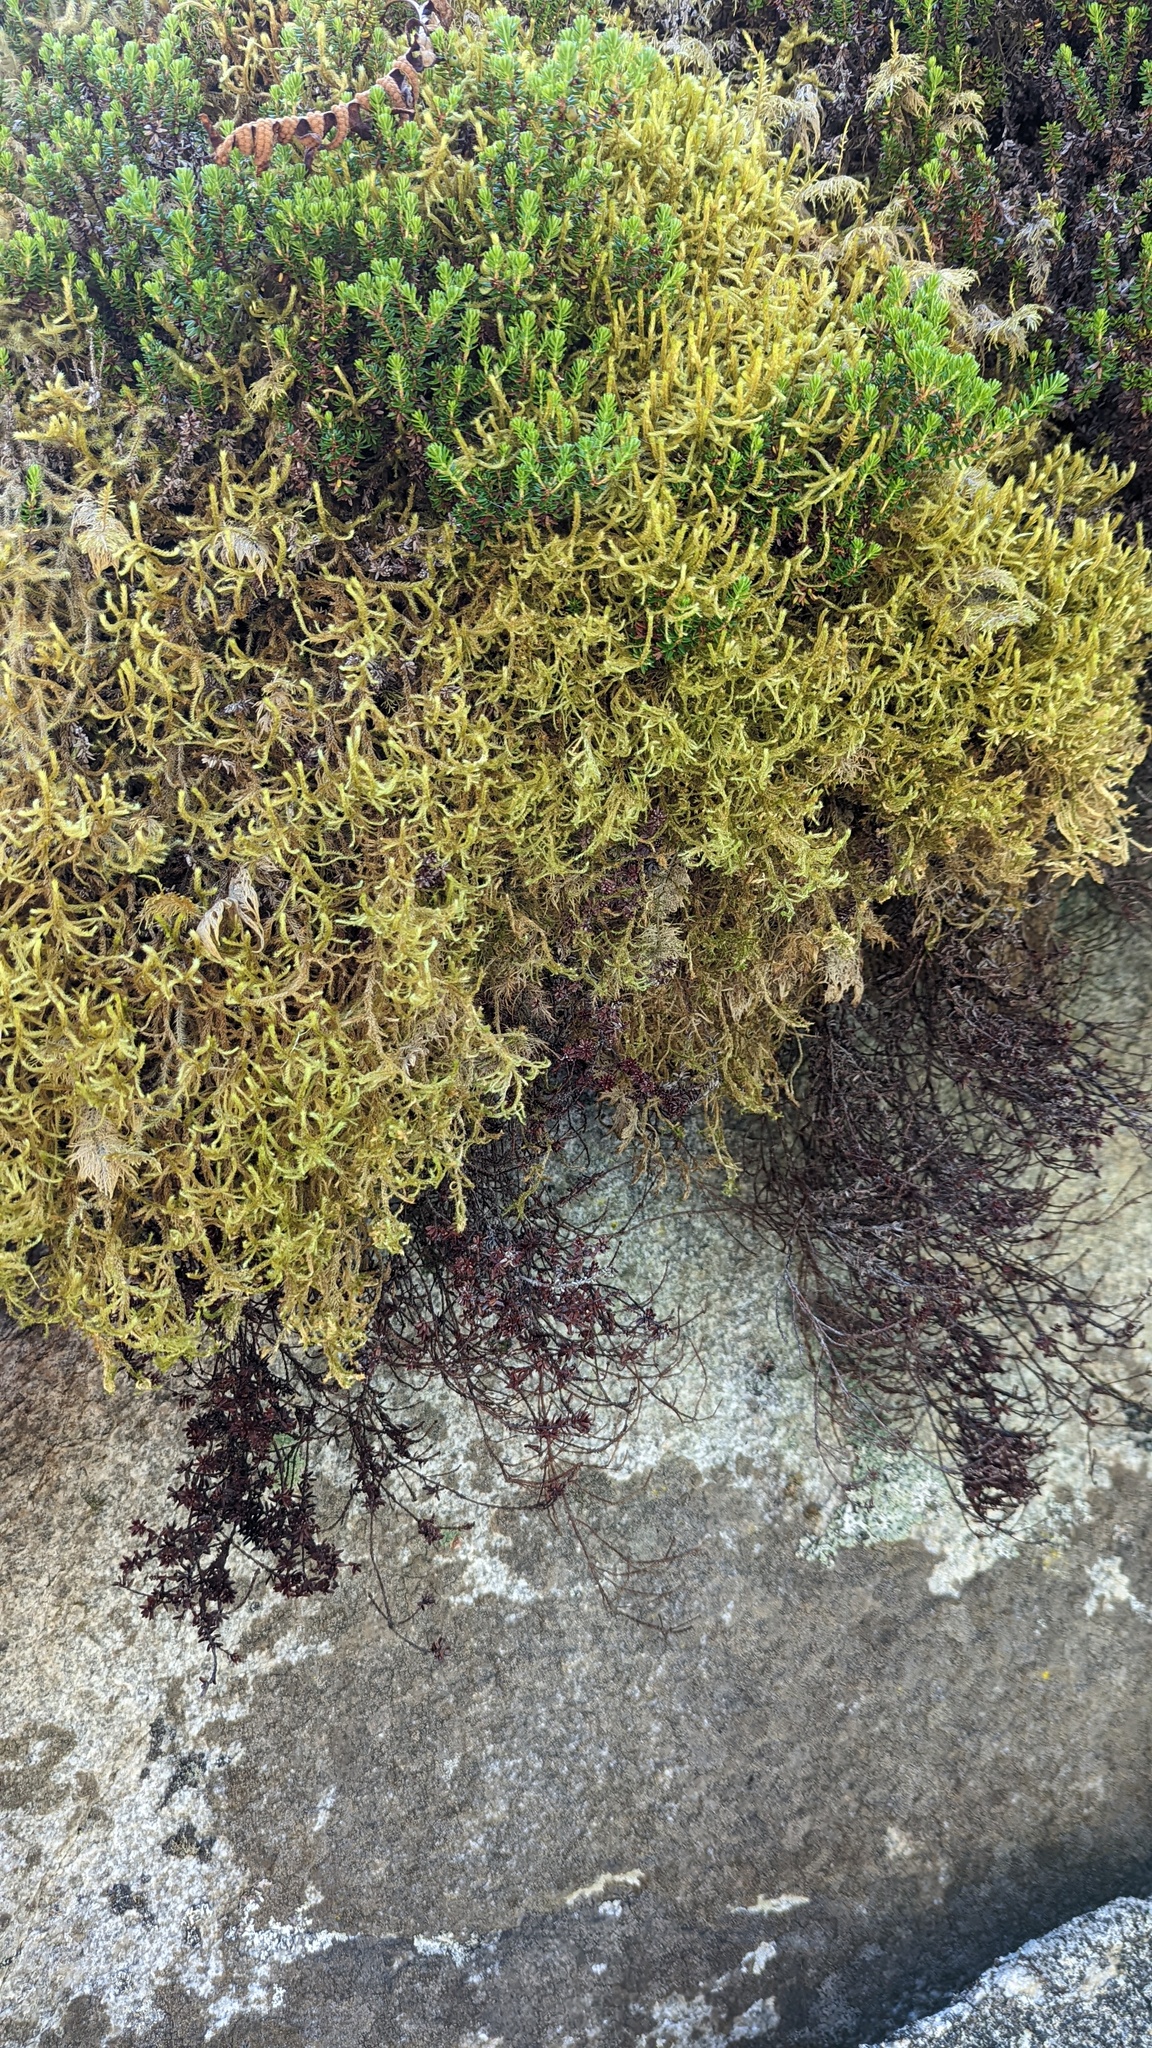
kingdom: Plantae
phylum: Bryophyta
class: Bryopsida
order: Hypnales
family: Antitrichiaceae
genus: Antitrichia
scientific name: Antitrichia curtipendula
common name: Pendulous wing-moss
